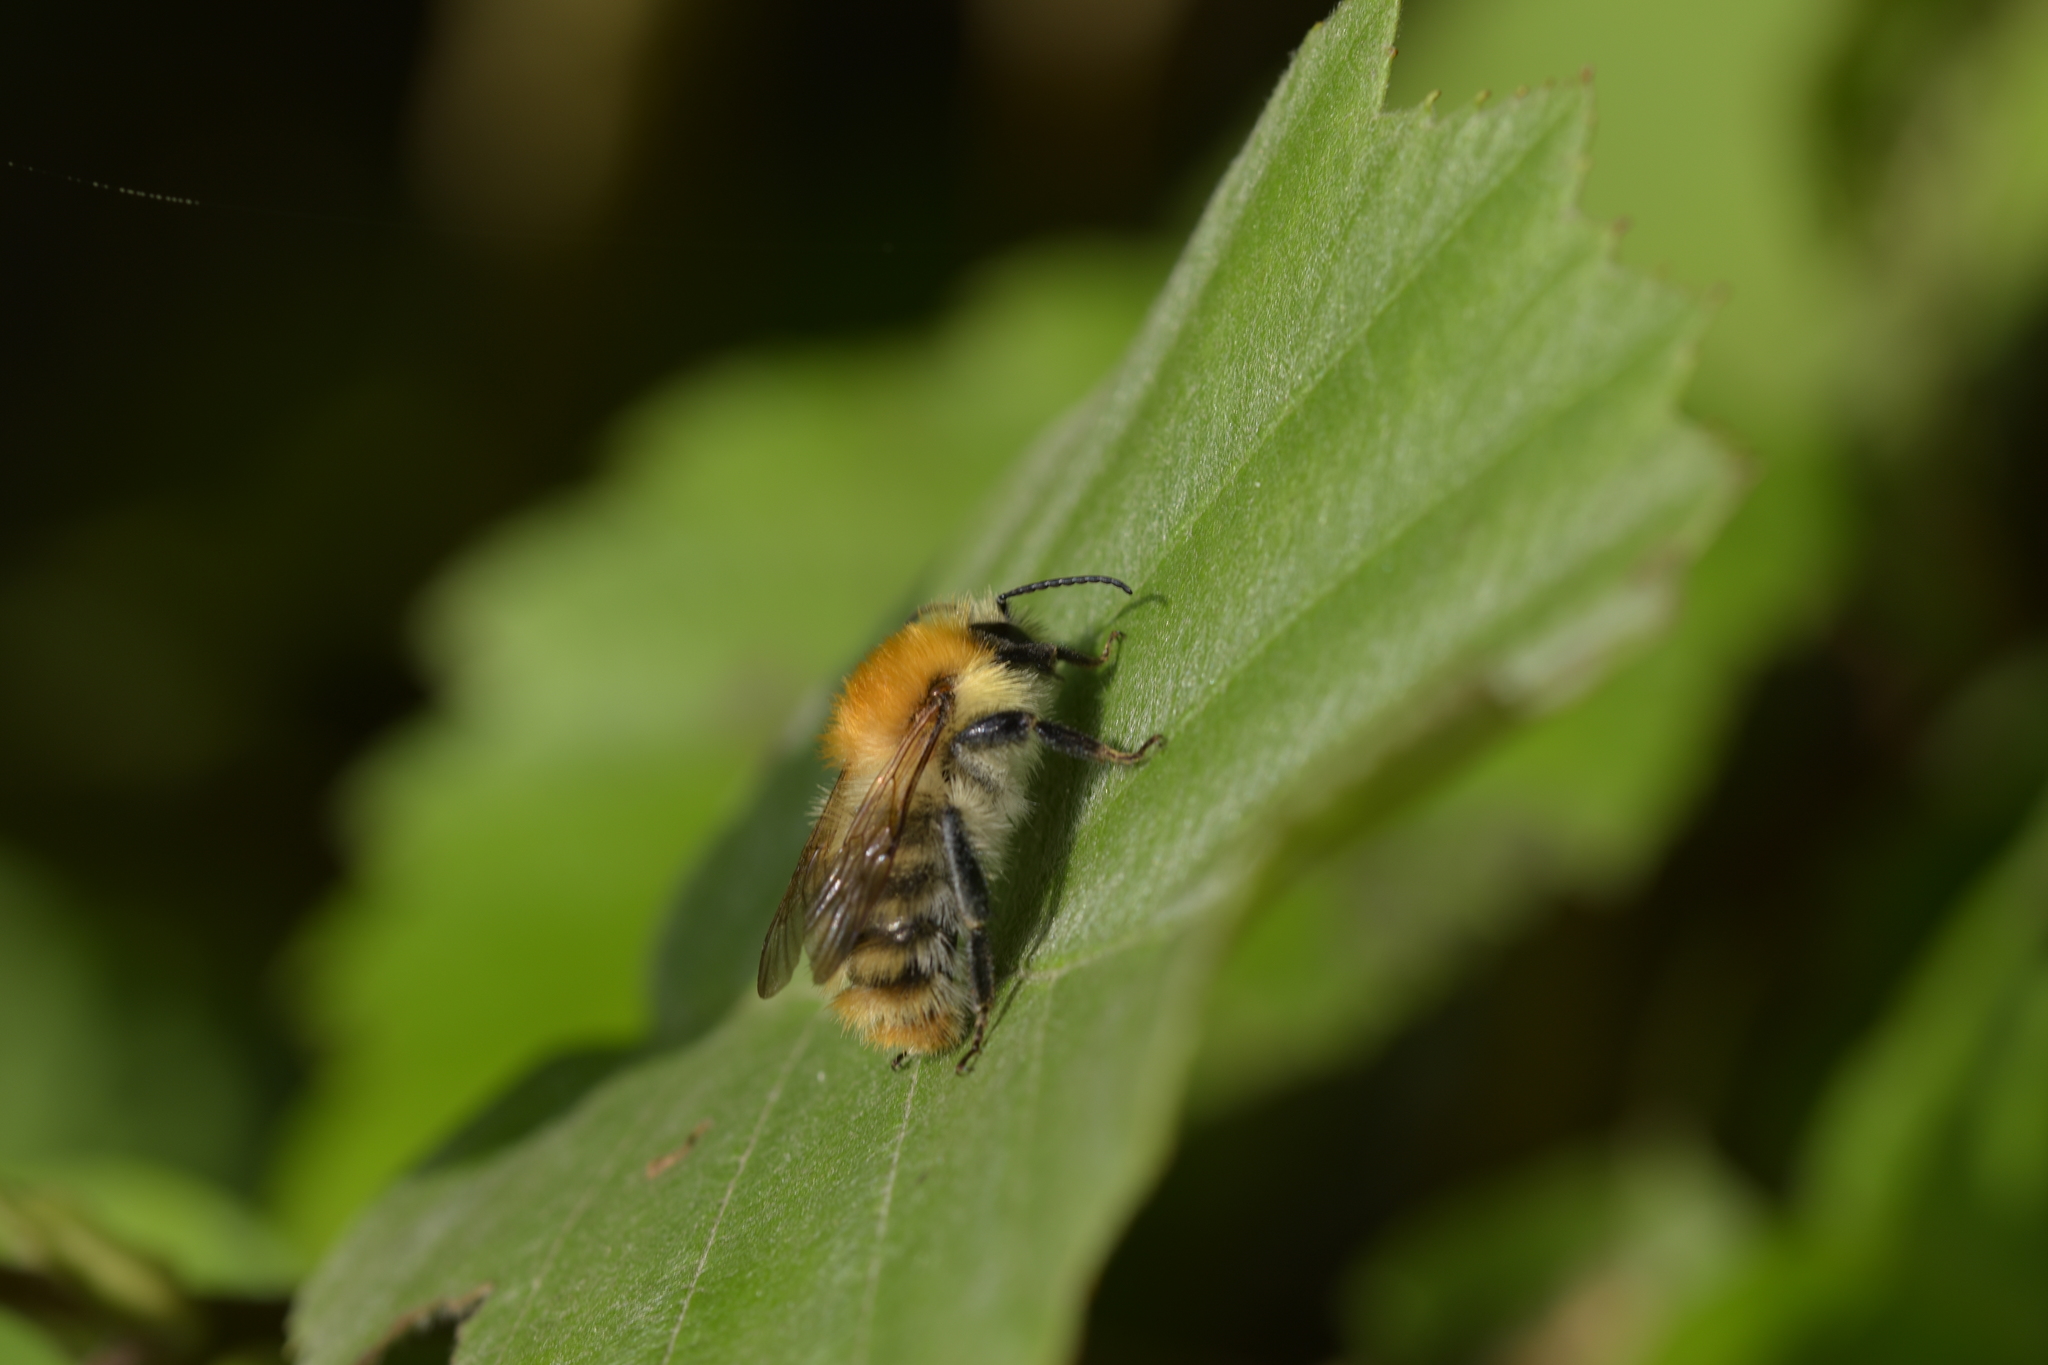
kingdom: Animalia
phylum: Arthropoda
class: Insecta
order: Hymenoptera
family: Apidae
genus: Bombus
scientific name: Bombus pascuorum
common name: Common carder bee
